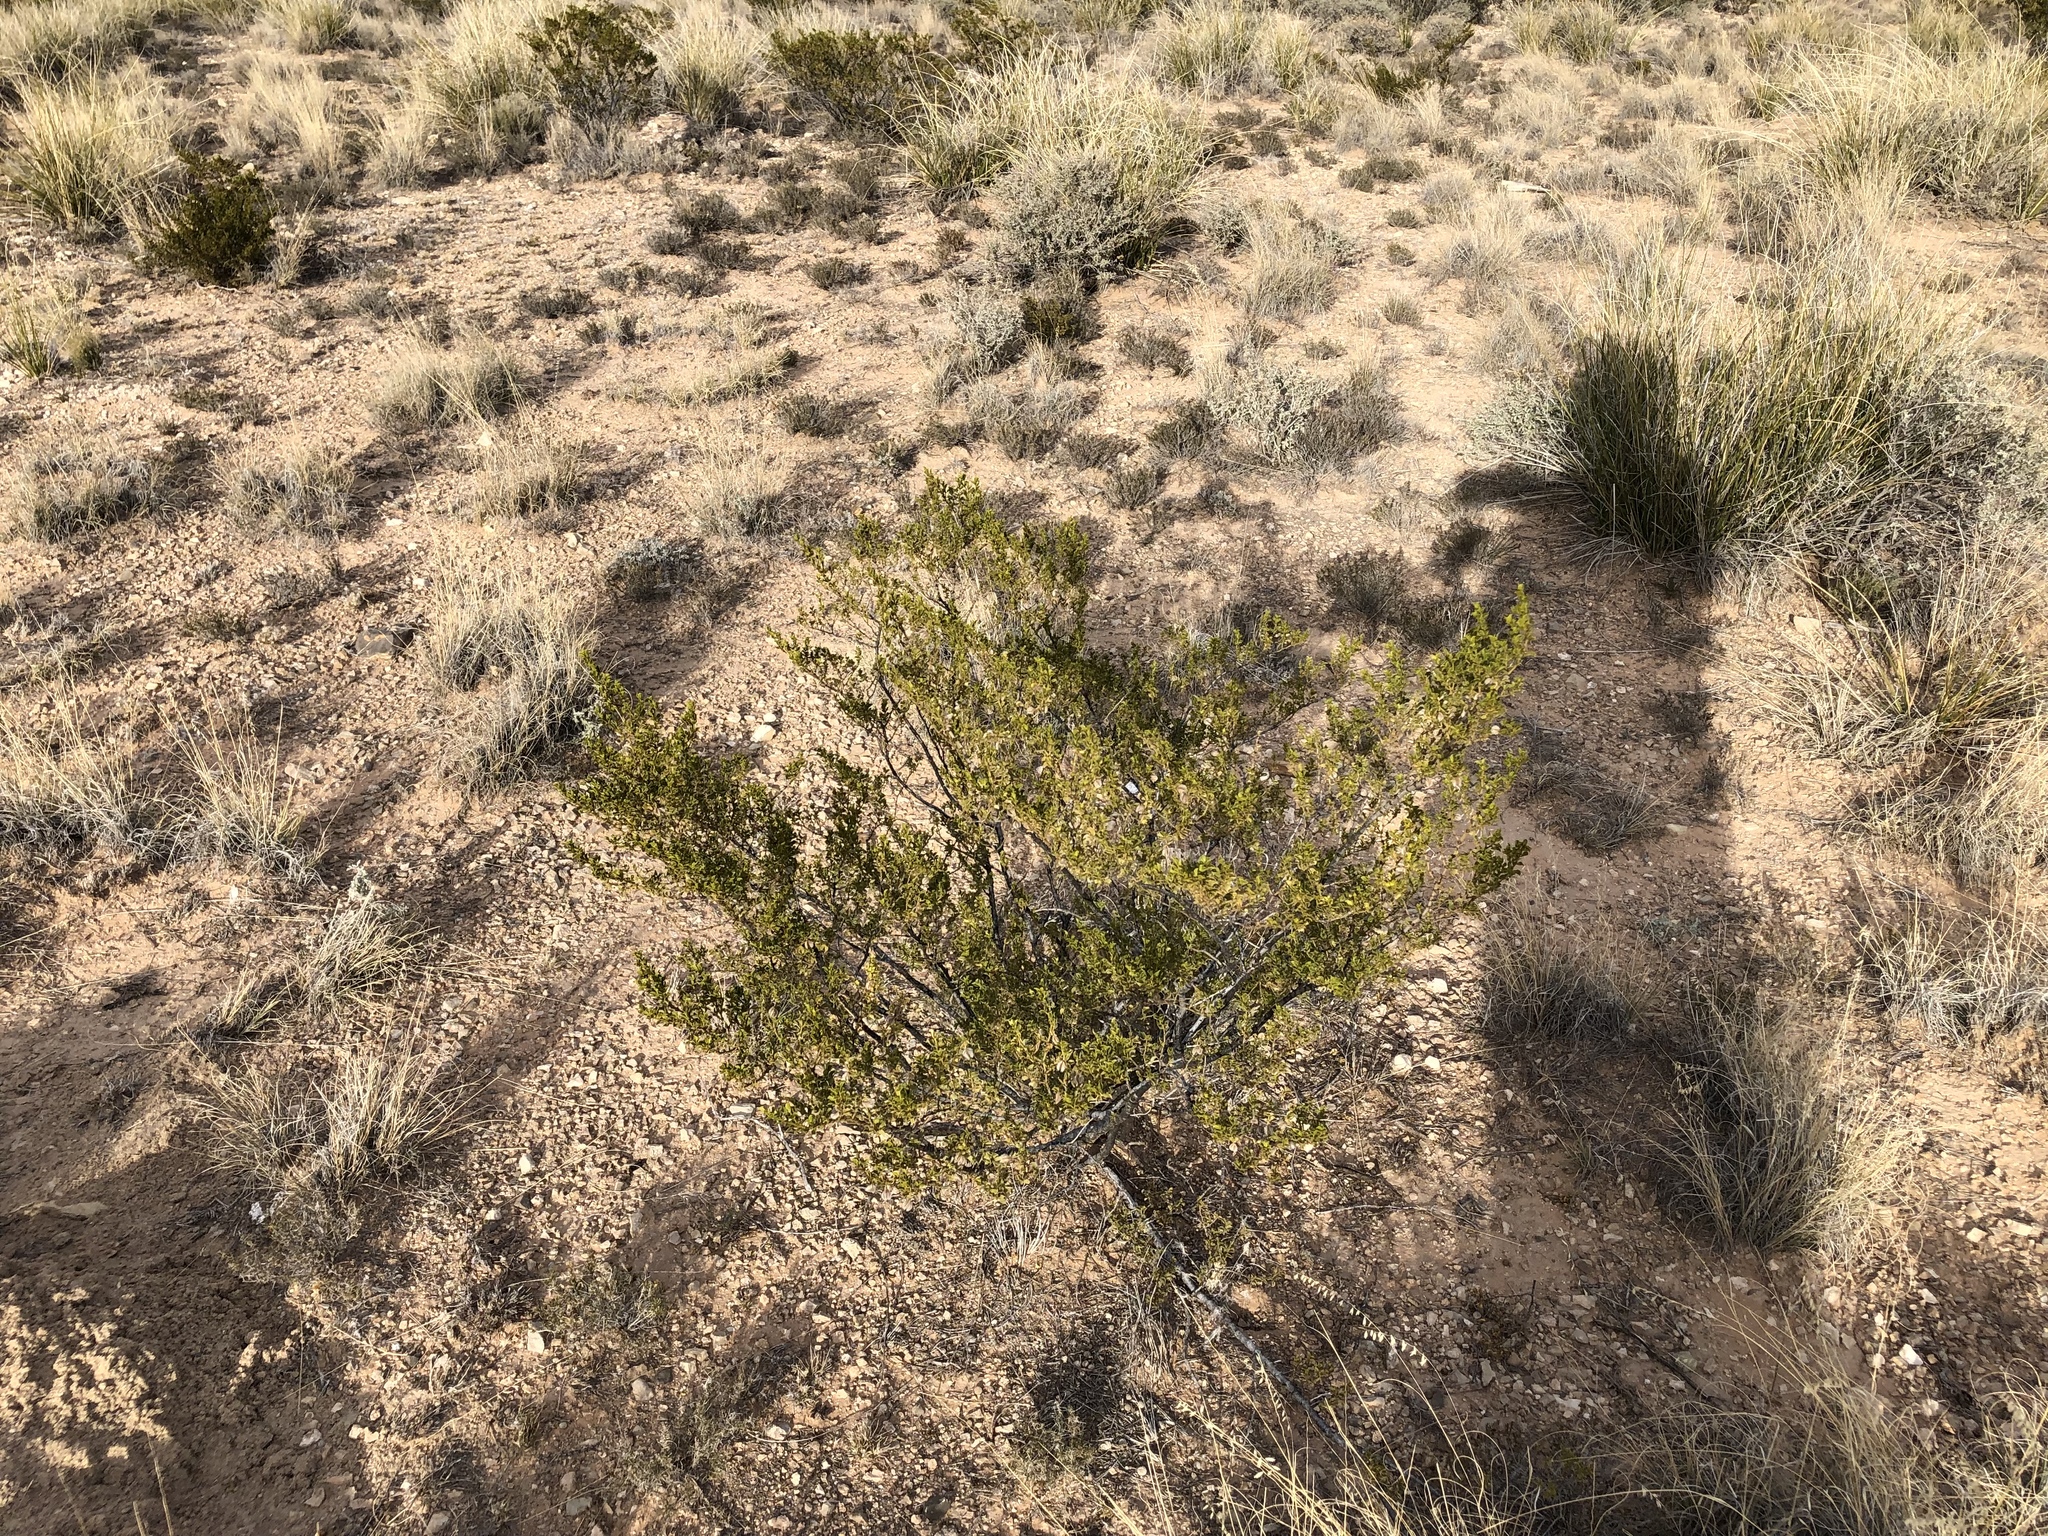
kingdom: Plantae
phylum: Tracheophyta
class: Magnoliopsida
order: Zygophyllales
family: Zygophyllaceae
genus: Larrea
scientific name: Larrea tridentata
